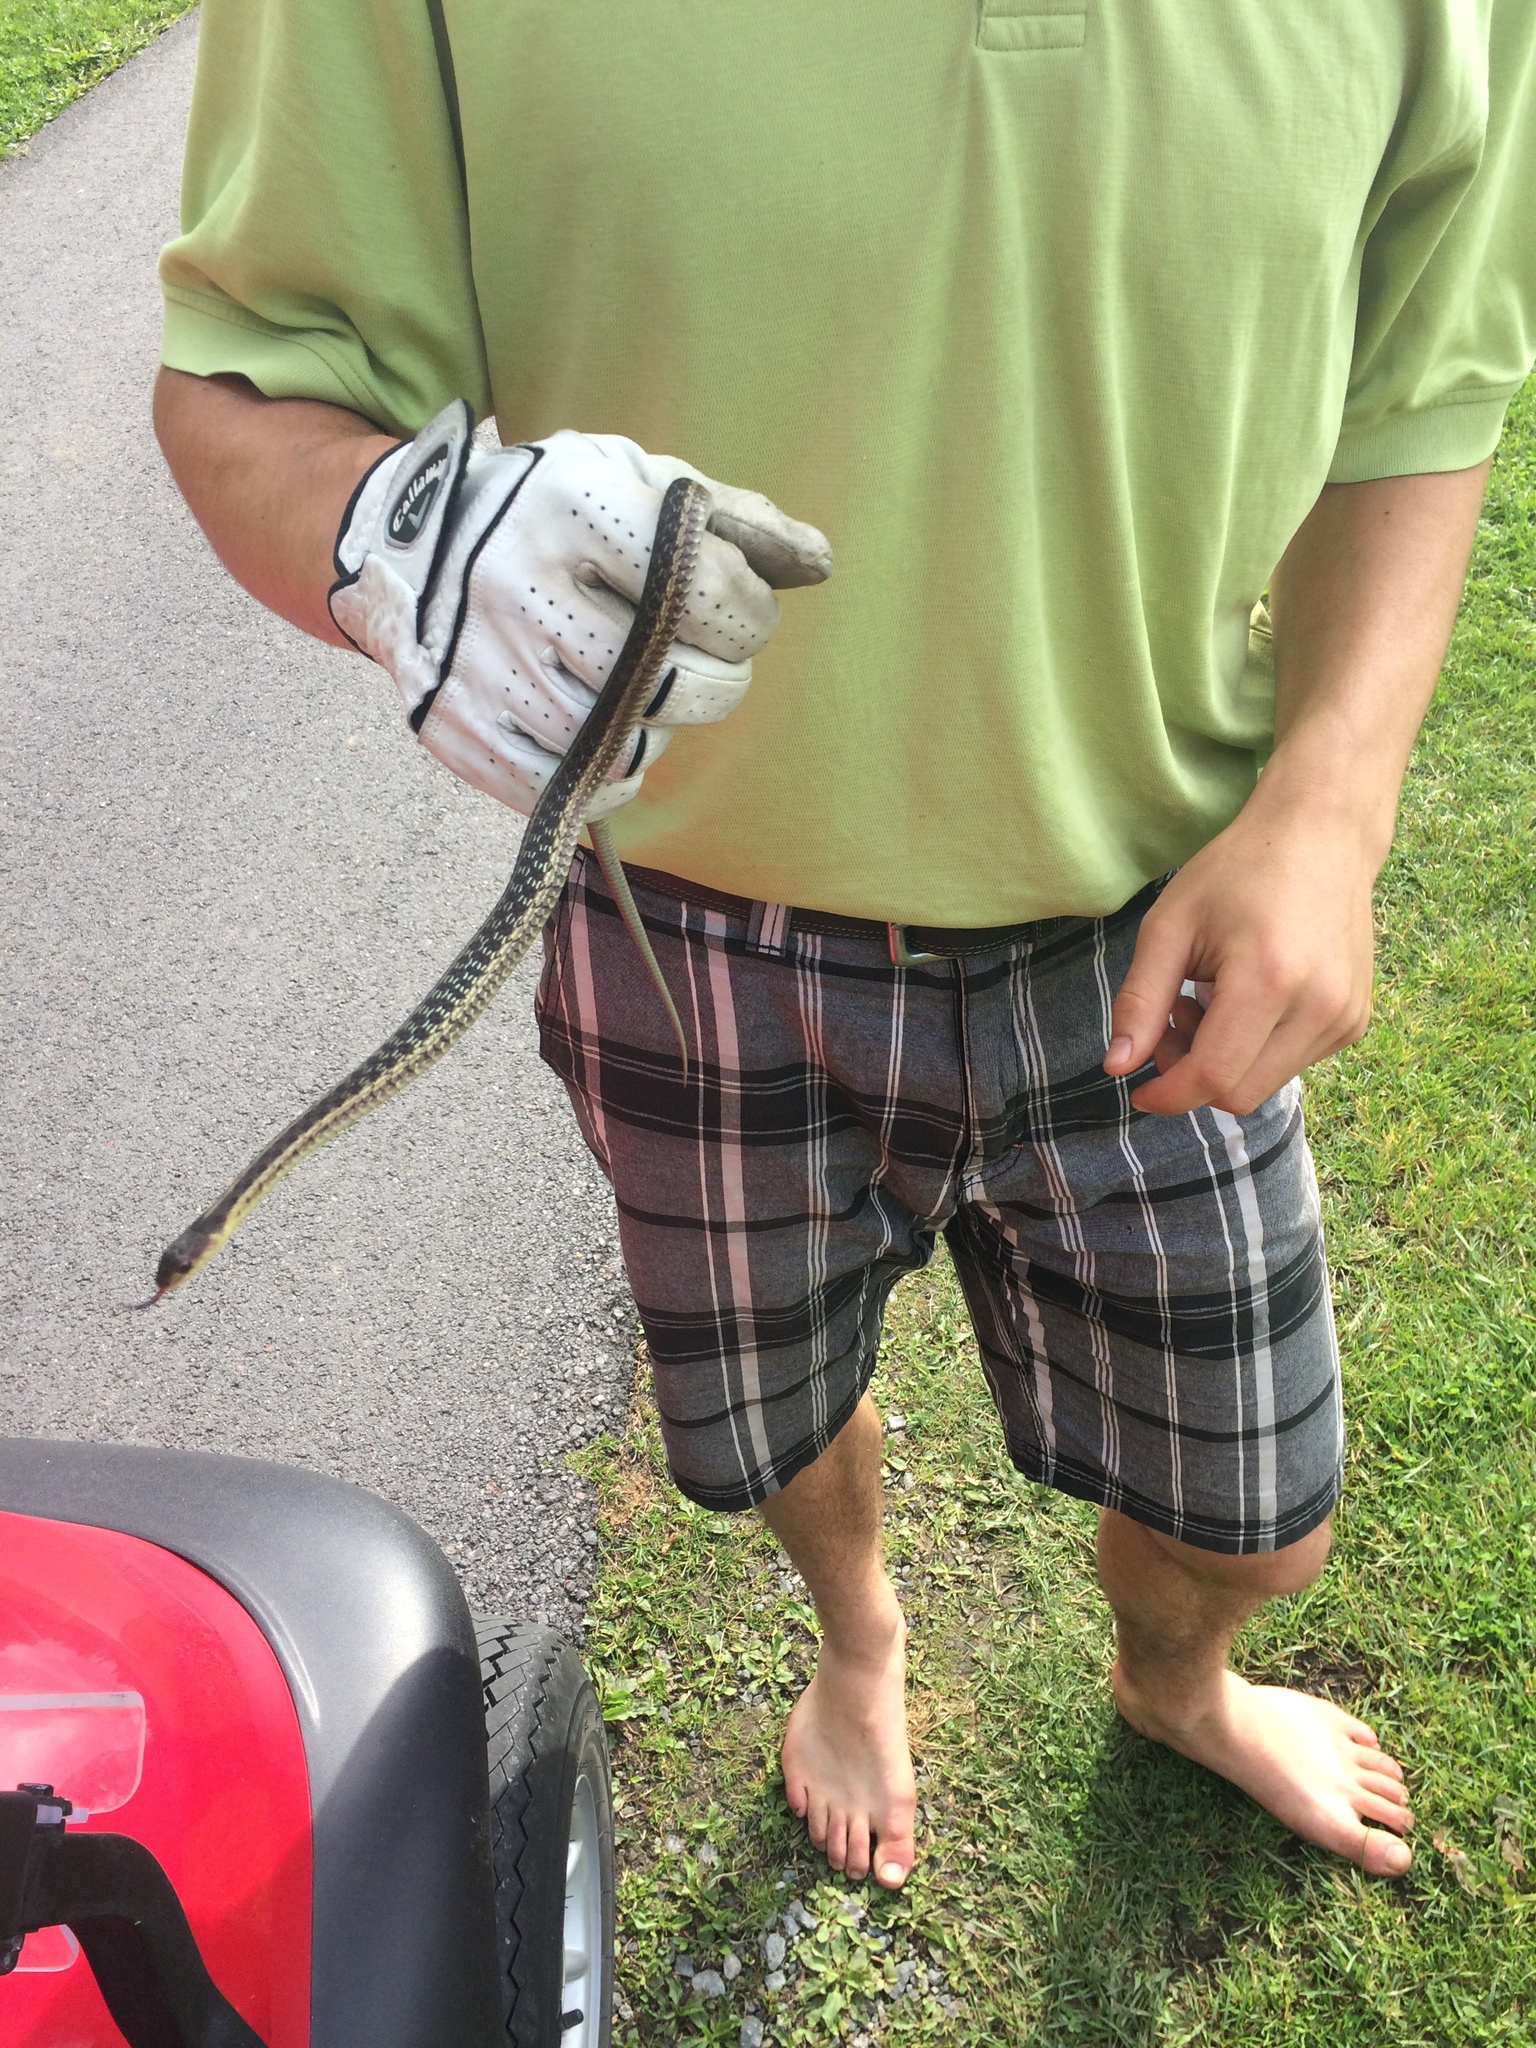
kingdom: Animalia
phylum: Chordata
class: Squamata
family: Colubridae
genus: Thamnophis
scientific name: Thamnophis sirtalis
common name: Common garter snake
